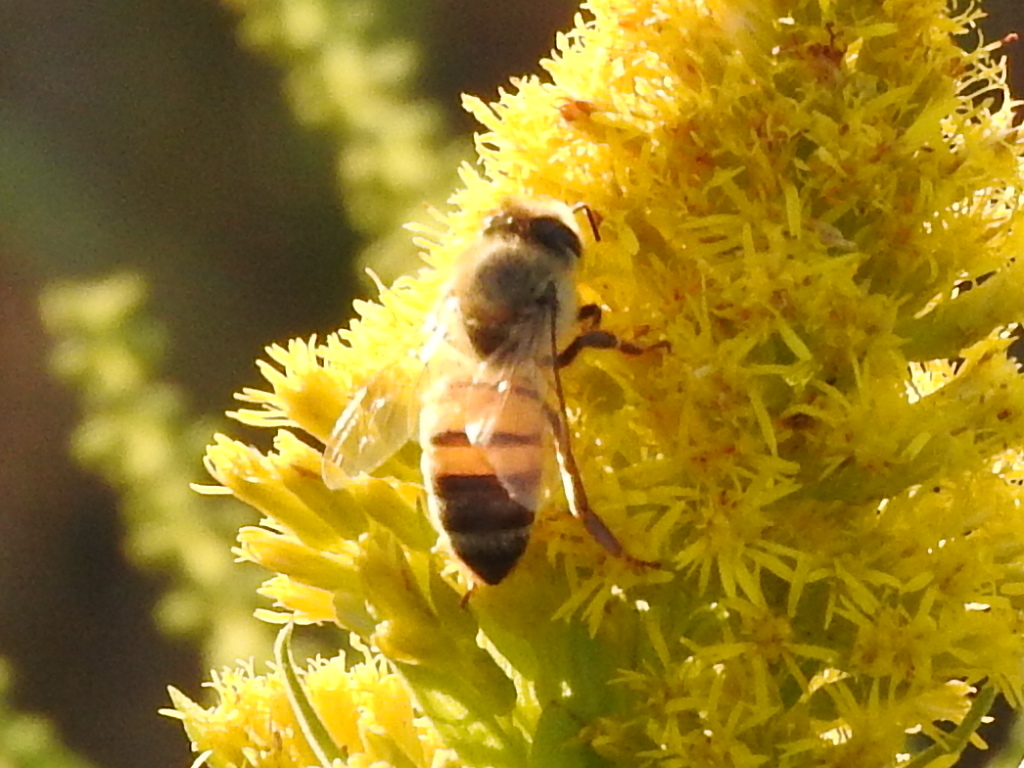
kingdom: Animalia
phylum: Arthropoda
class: Insecta
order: Hymenoptera
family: Apidae
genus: Apis
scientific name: Apis mellifera
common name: Honey bee
